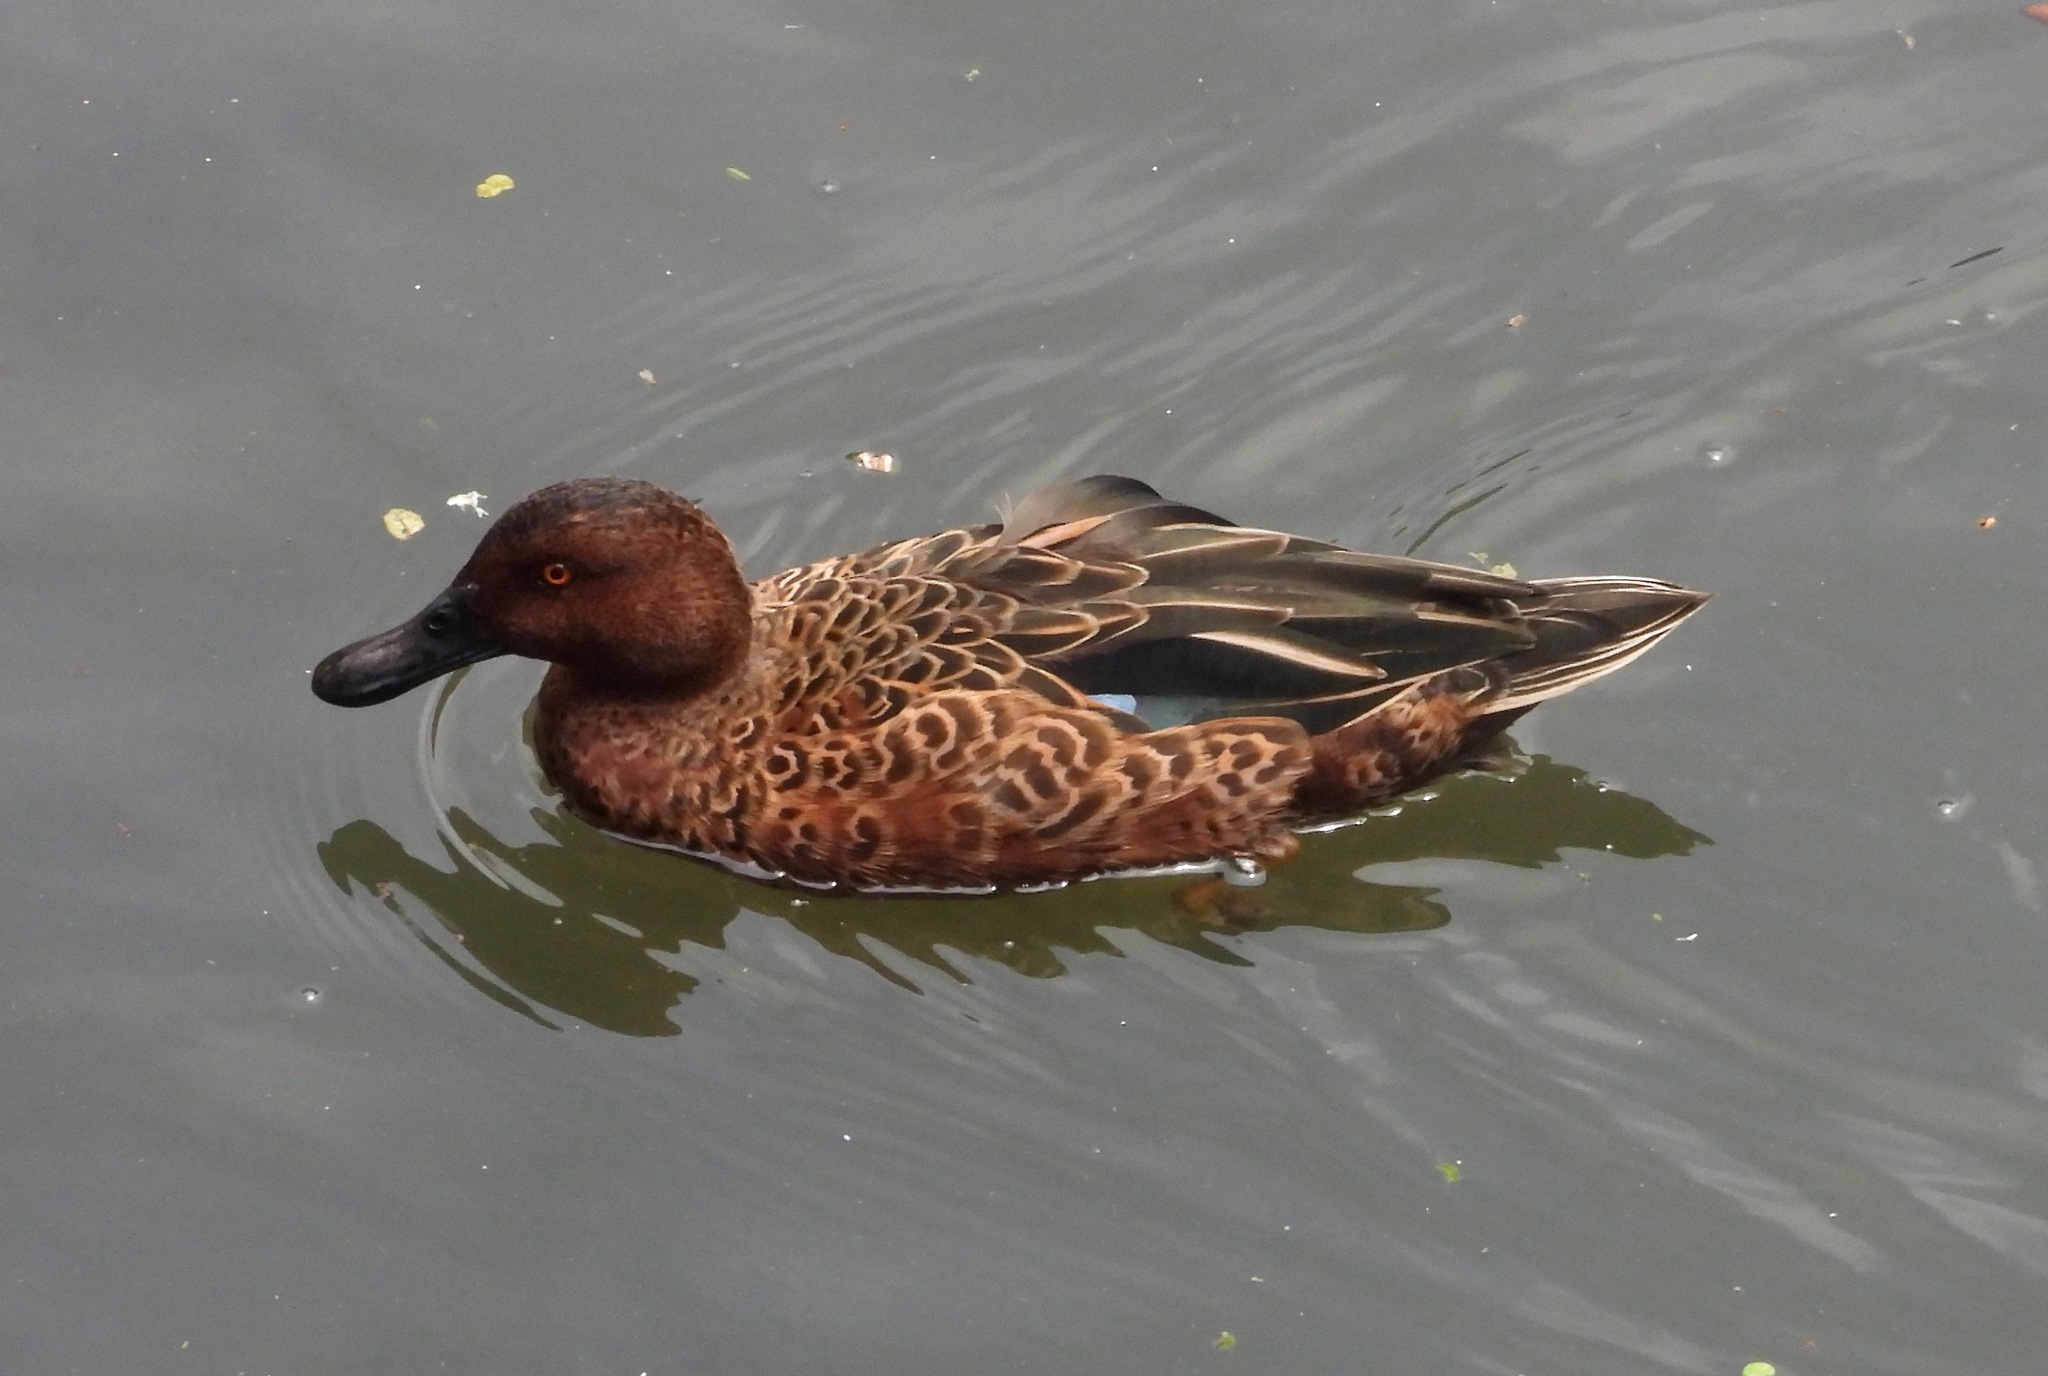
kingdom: Animalia
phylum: Chordata
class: Aves
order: Anseriformes
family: Anatidae
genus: Spatula
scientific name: Spatula cyanoptera
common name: Cinnamon teal
